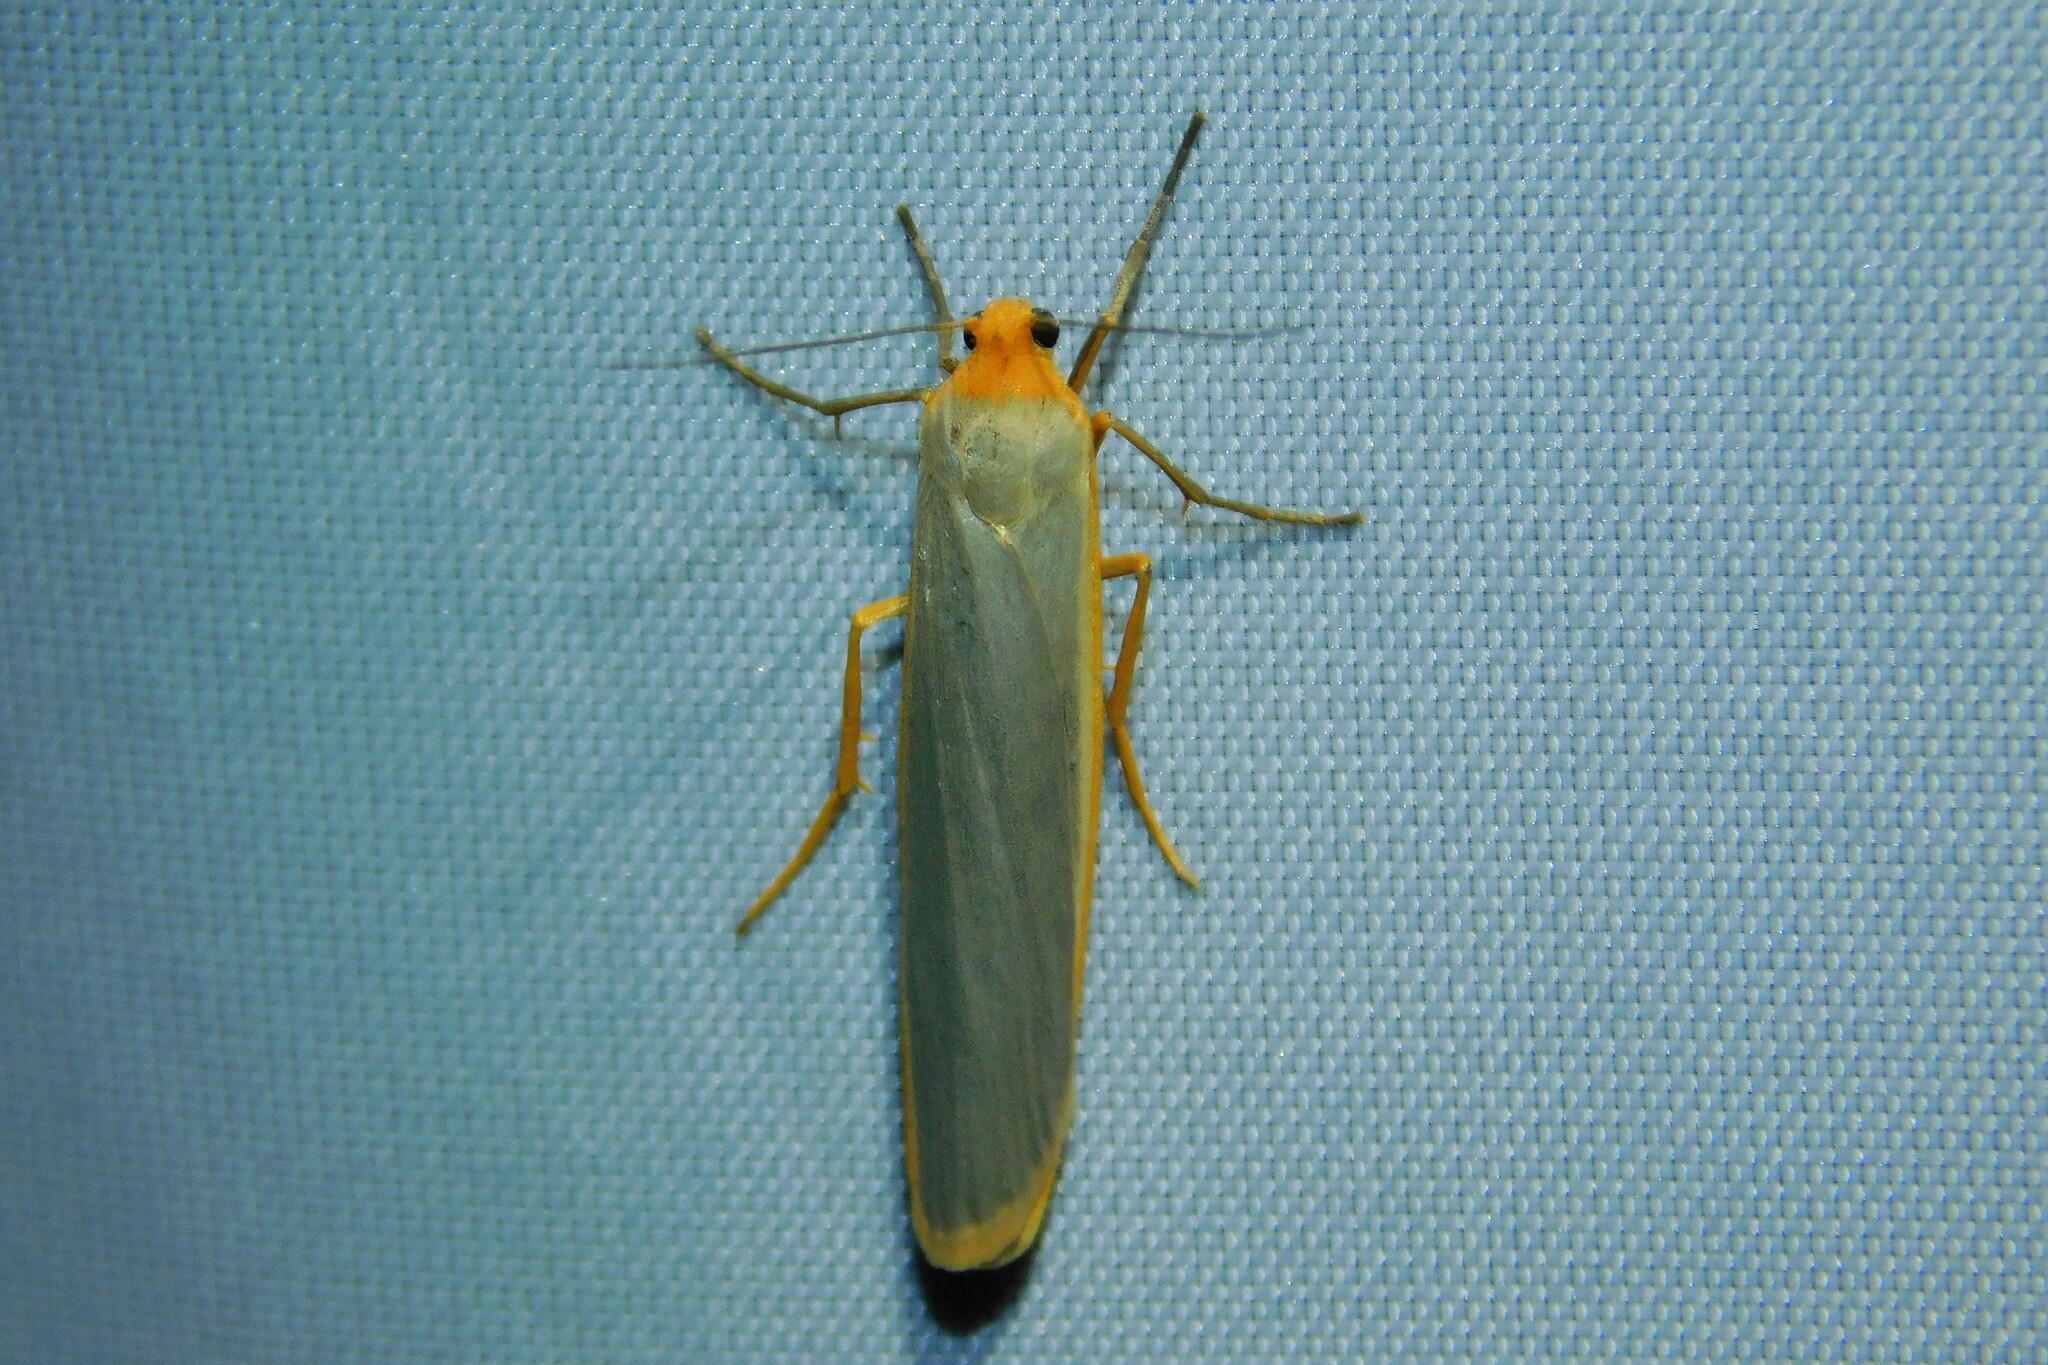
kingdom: Animalia
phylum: Arthropoda
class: Insecta
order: Lepidoptera
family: Erebidae
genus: Manulea
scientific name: Manulea complana
